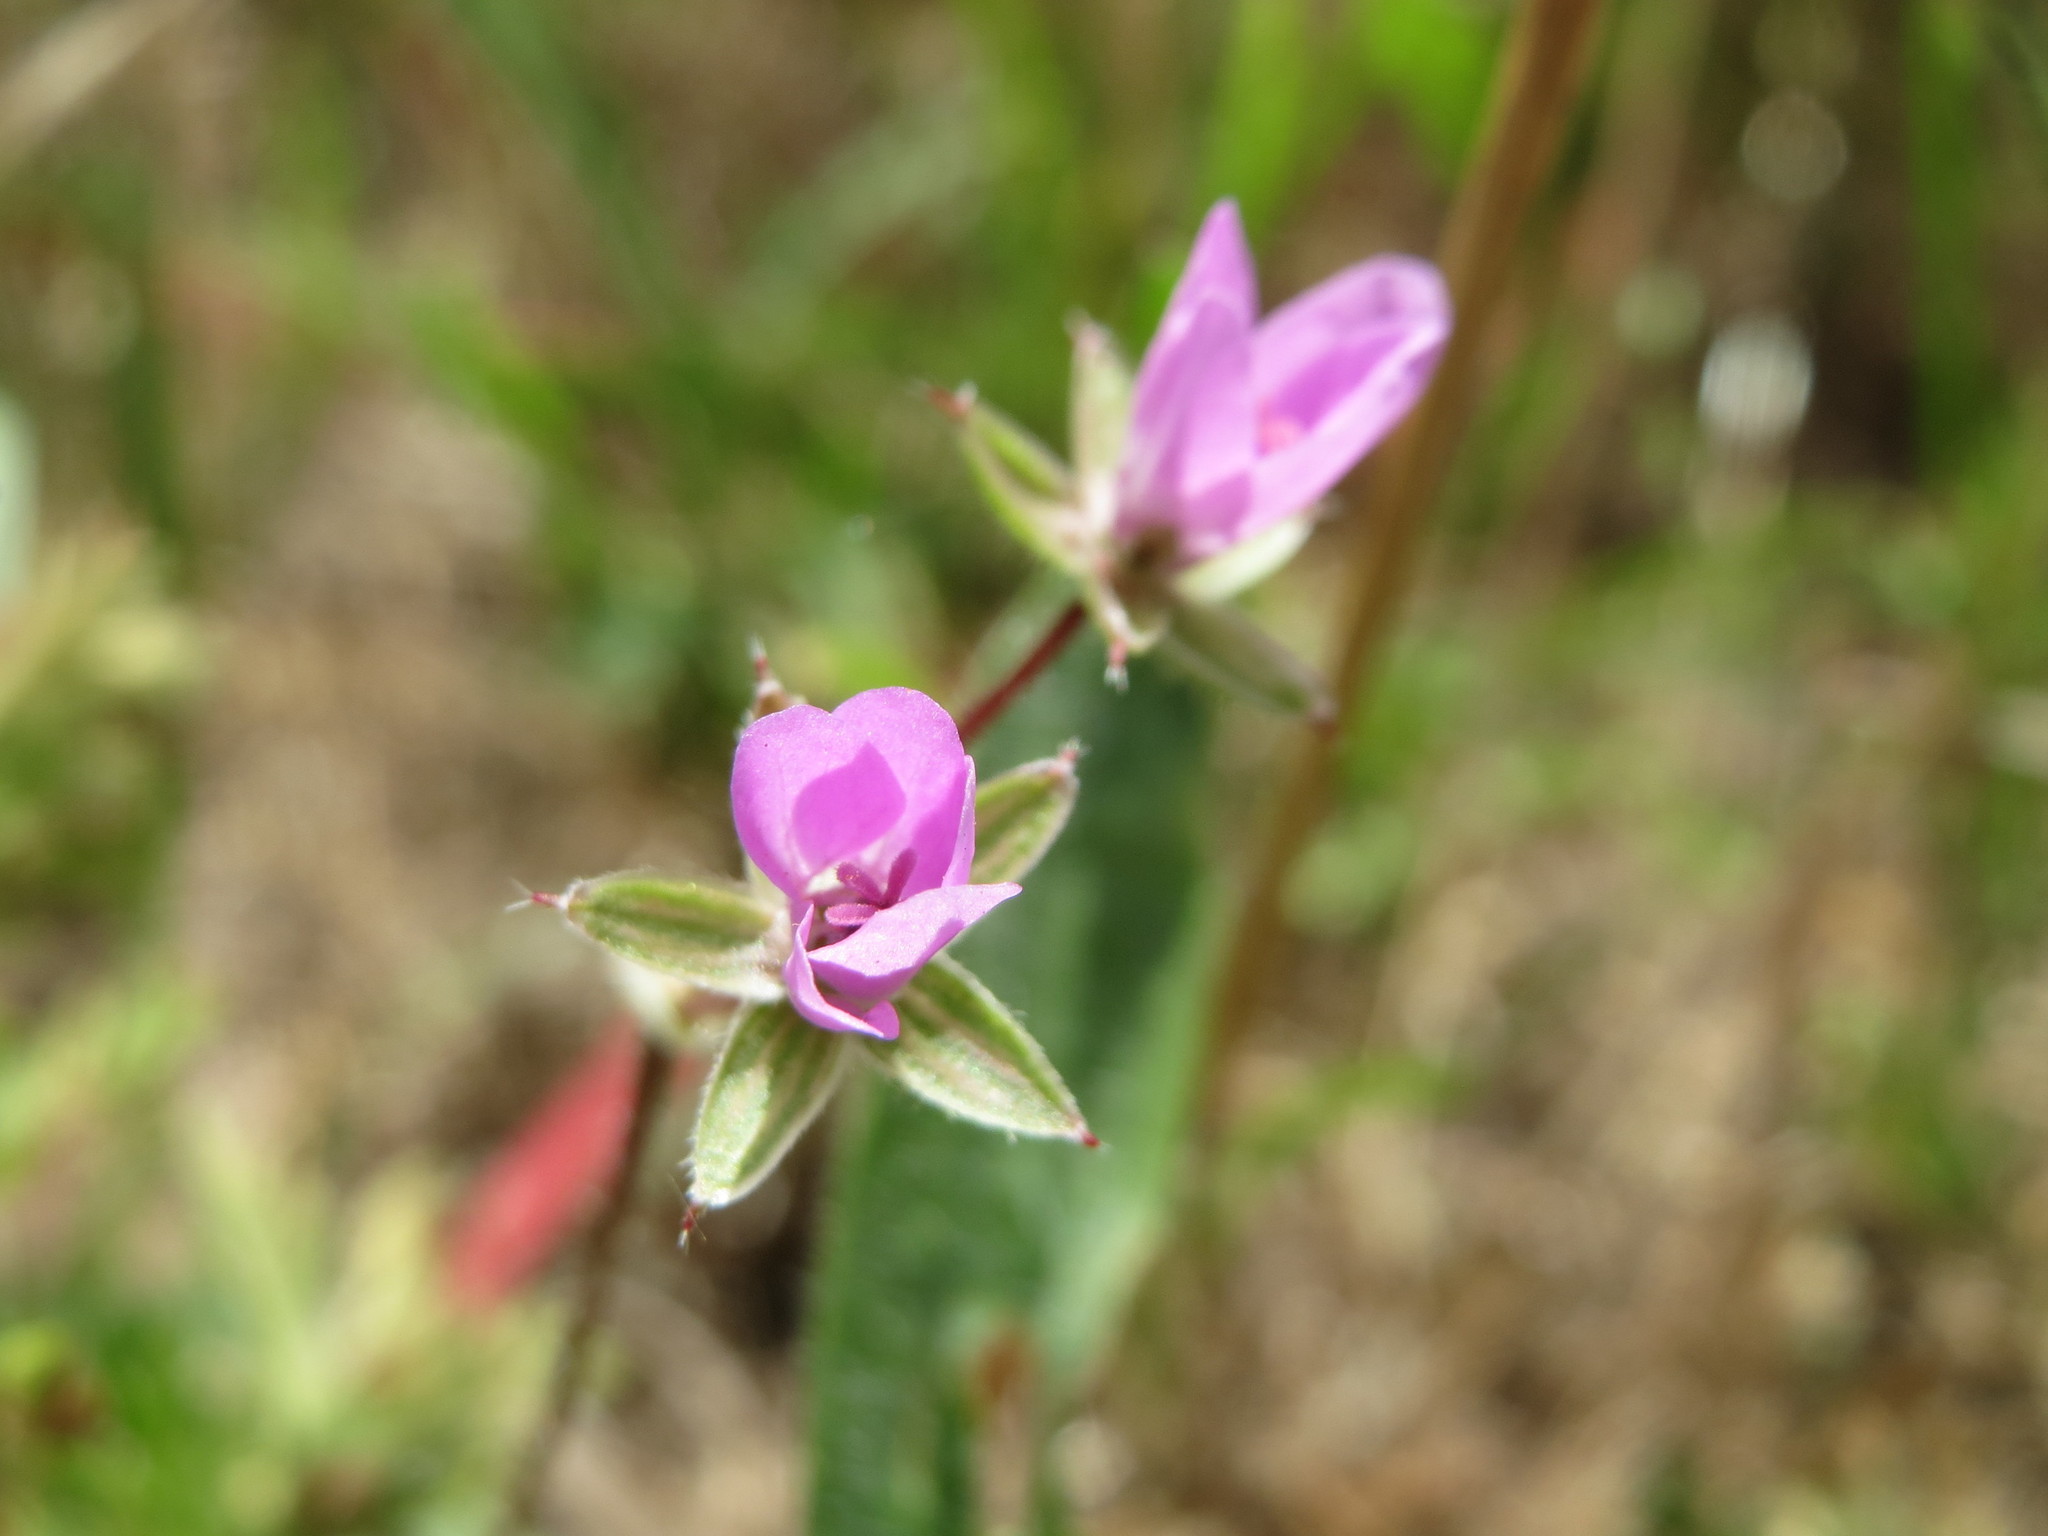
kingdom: Plantae
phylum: Tracheophyta
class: Magnoliopsida
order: Geraniales
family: Geraniaceae
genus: Erodium
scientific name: Erodium cicutarium
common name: Common stork's-bill
